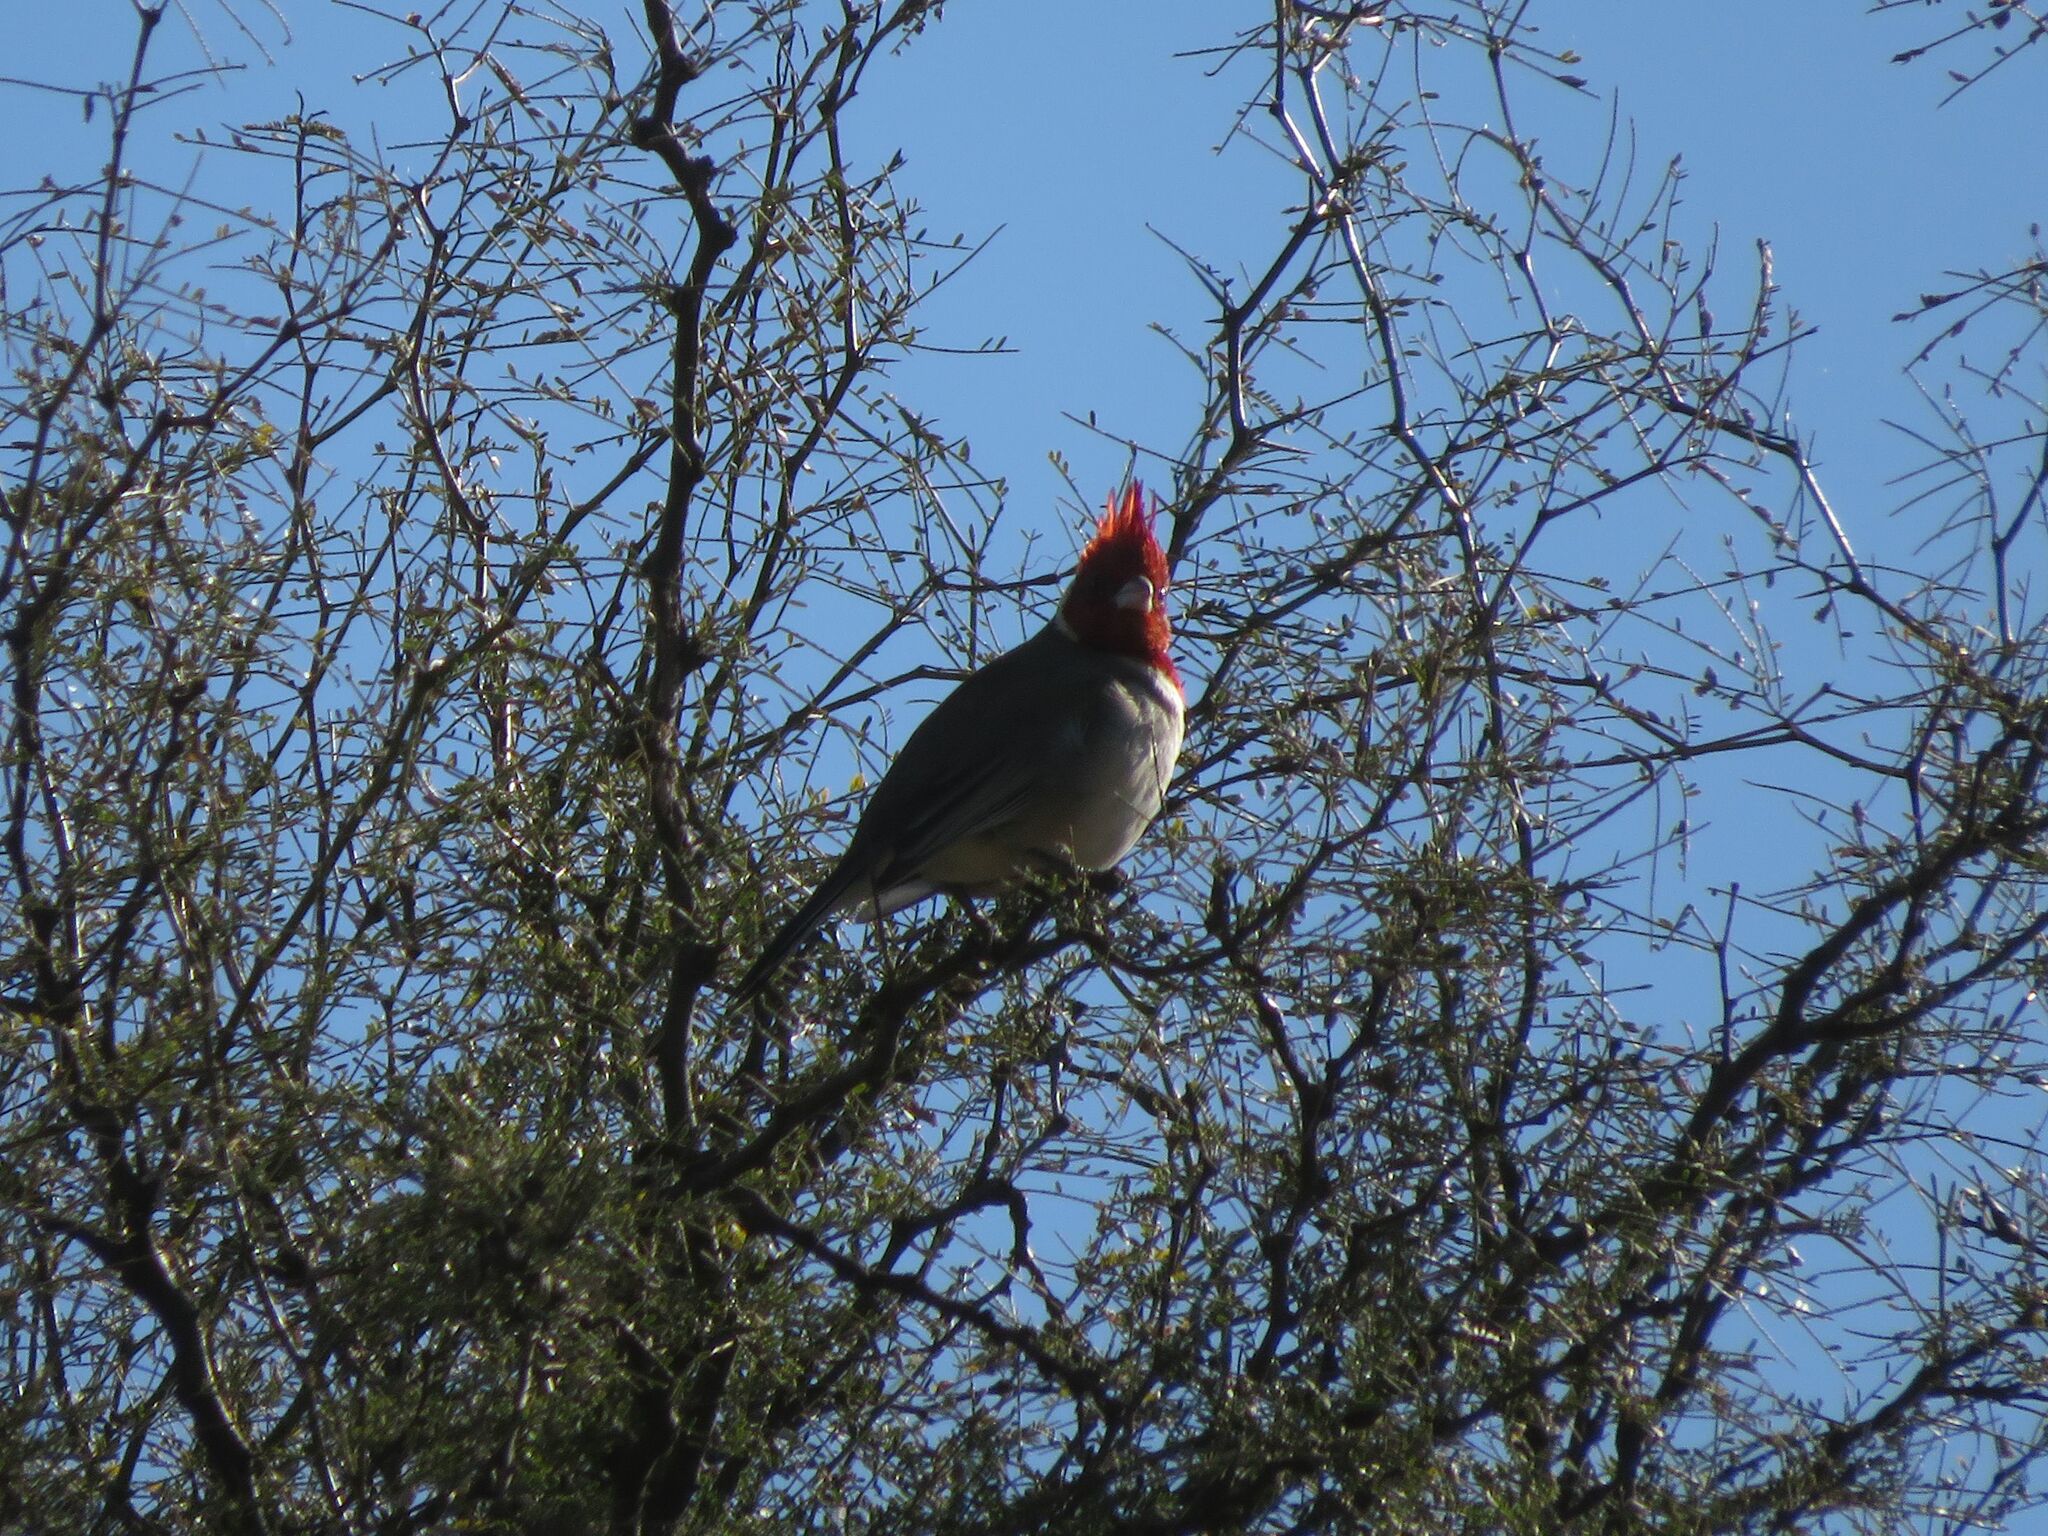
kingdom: Animalia
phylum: Chordata
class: Aves
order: Passeriformes
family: Thraupidae
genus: Paroaria
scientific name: Paroaria coronata
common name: Red-crested cardinal
